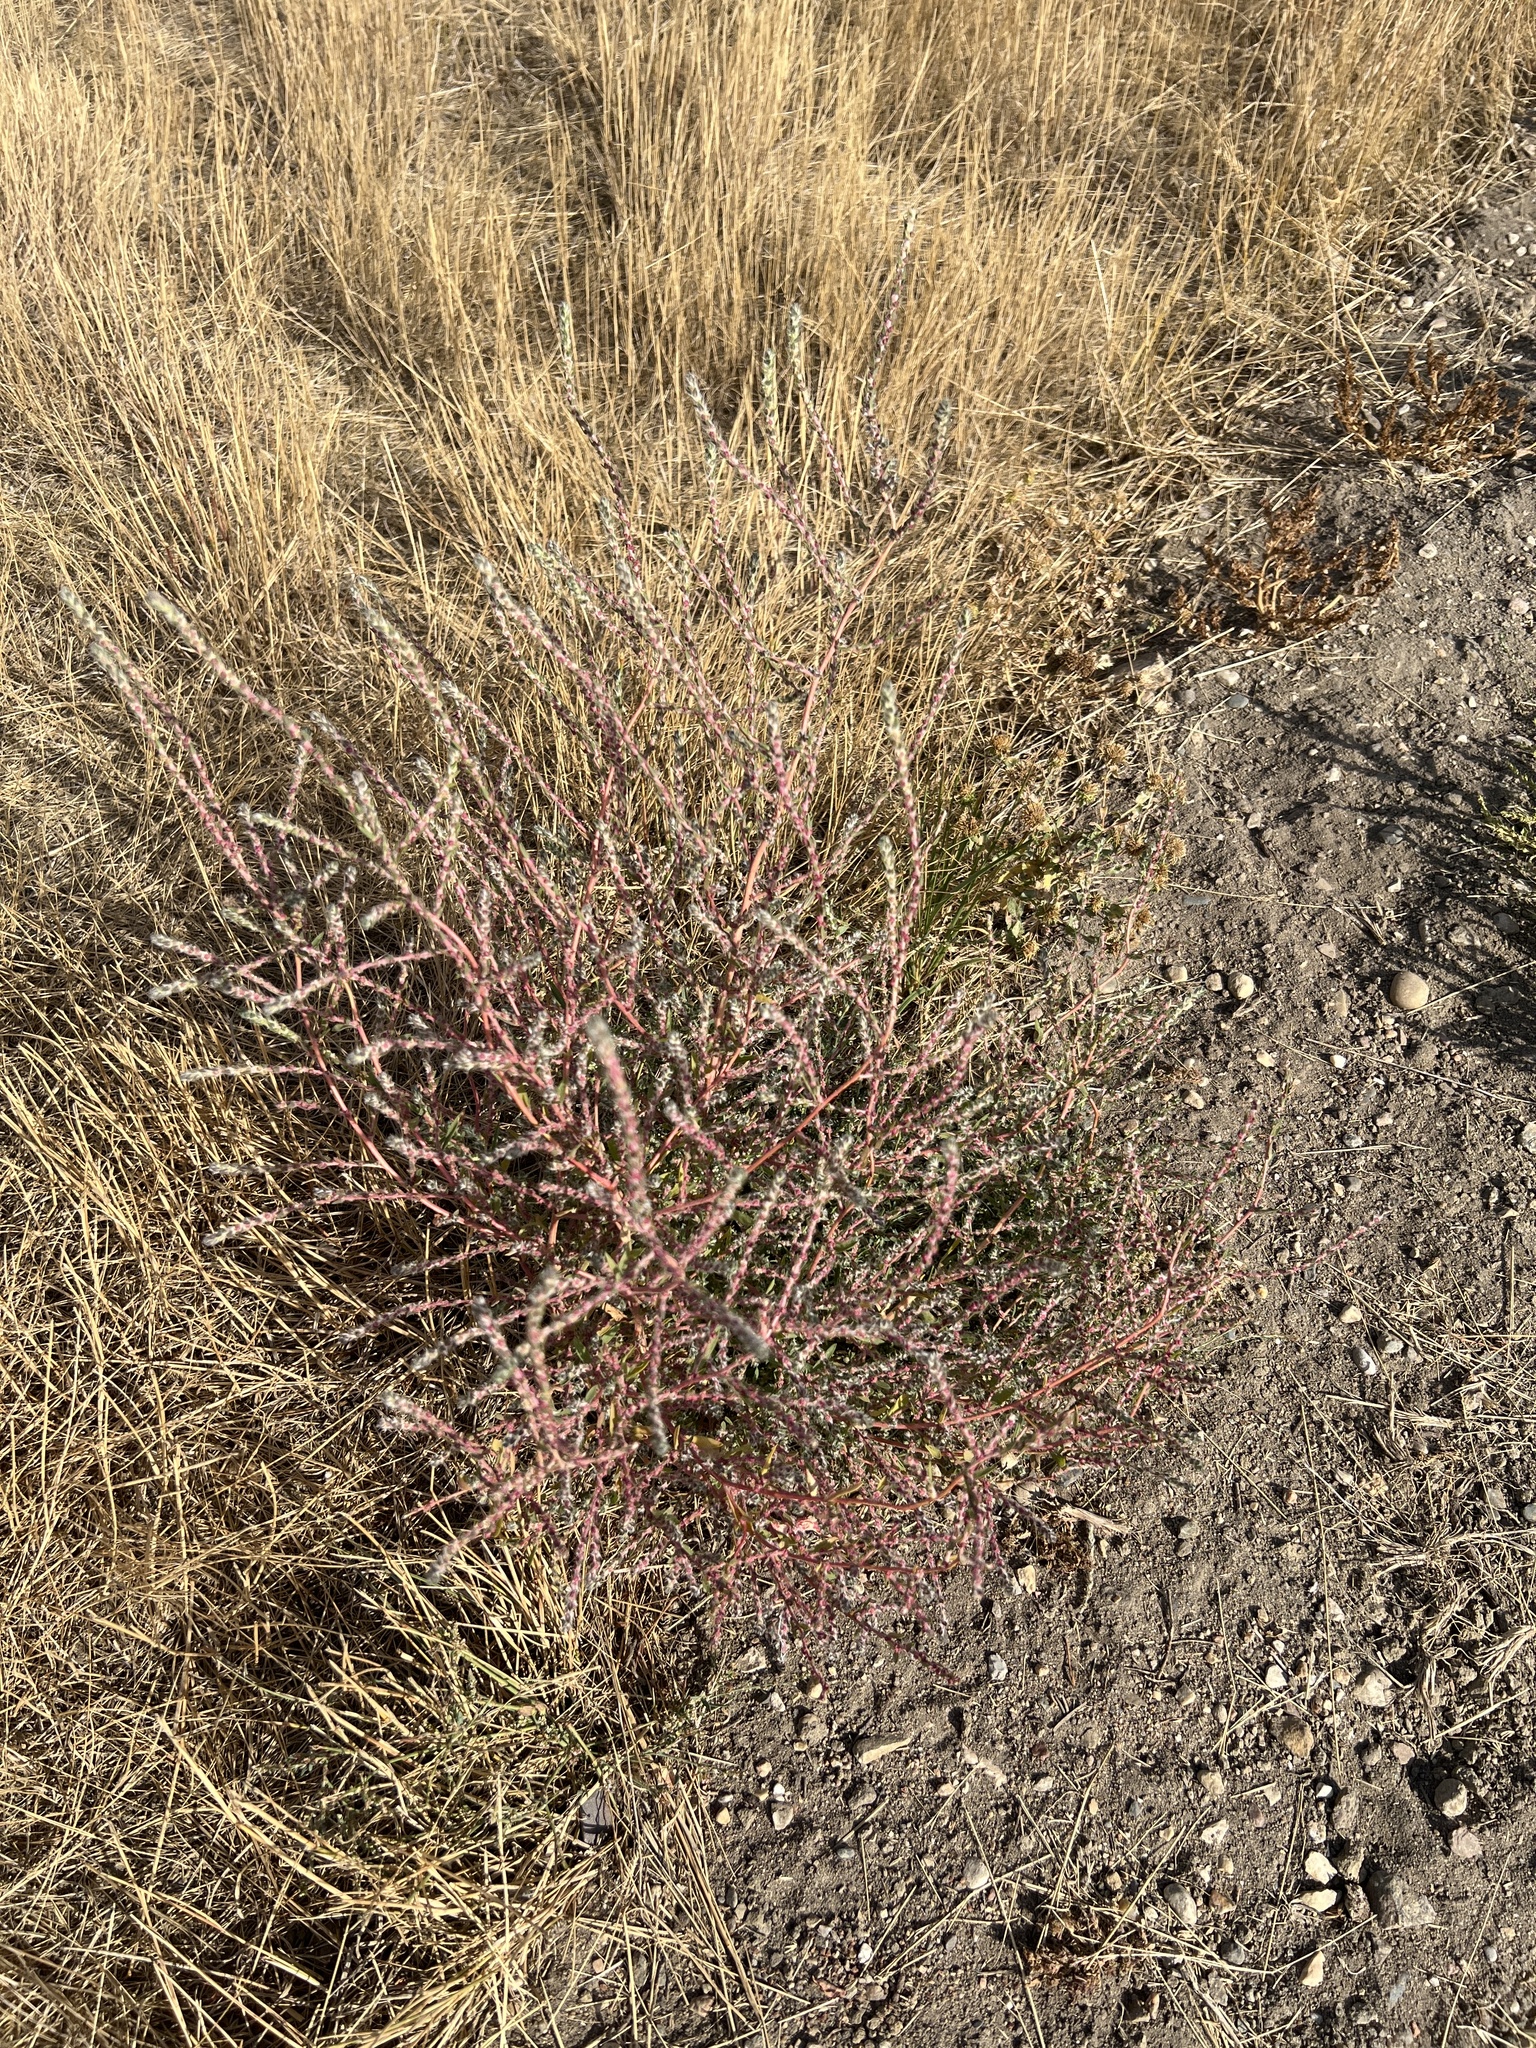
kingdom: Plantae
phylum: Tracheophyta
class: Magnoliopsida
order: Caryophyllales
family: Amaranthaceae
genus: Bassia
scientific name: Bassia scoparia
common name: Belvedere
